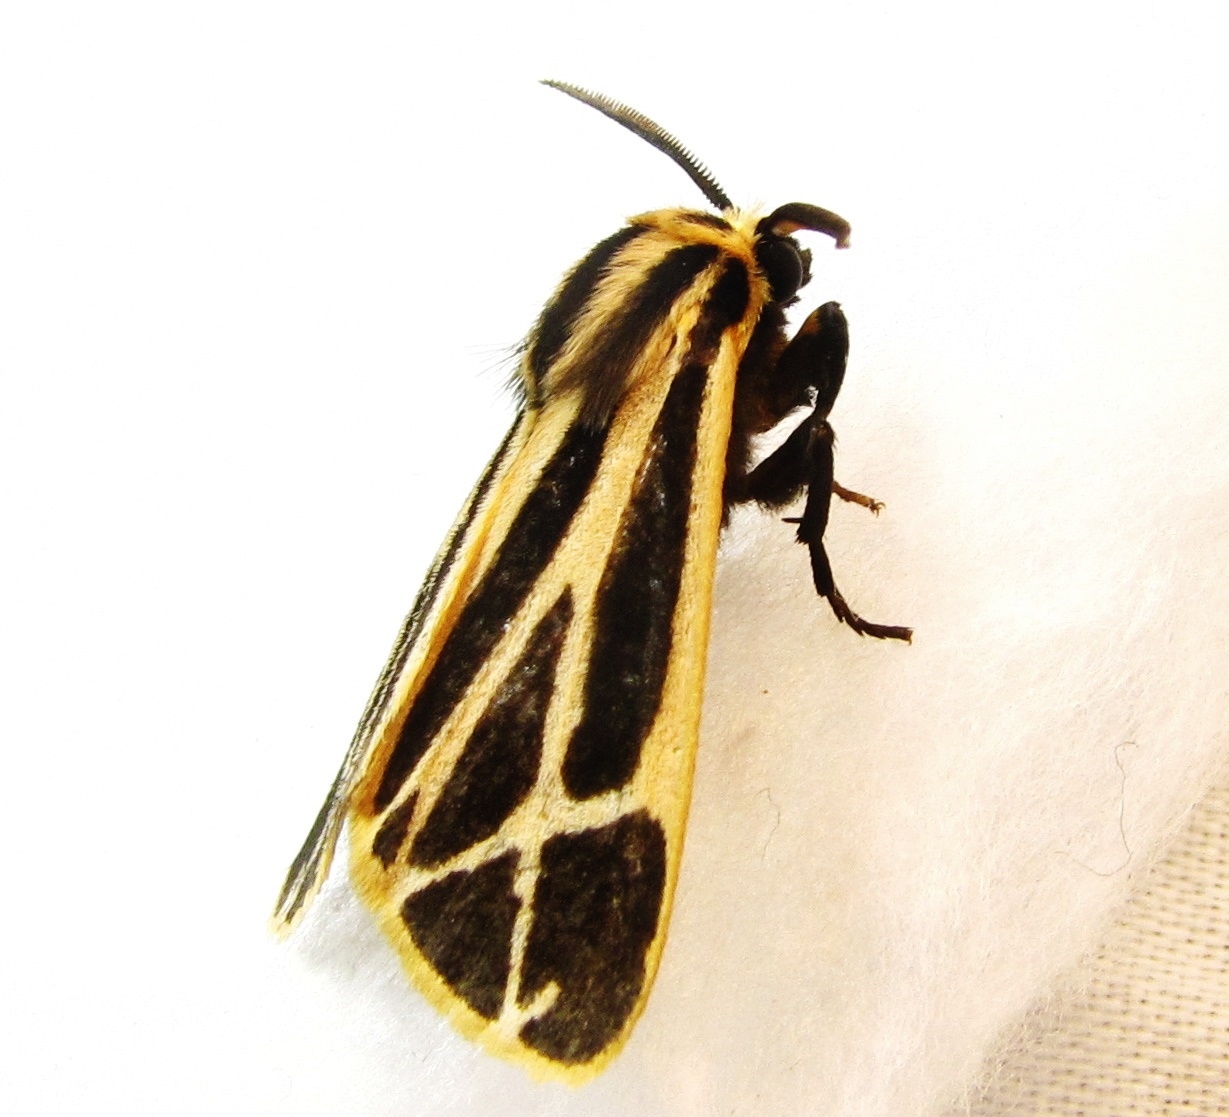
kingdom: Animalia
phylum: Arthropoda
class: Insecta
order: Lepidoptera
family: Erebidae
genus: Apantesis
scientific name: Apantesis phalerata
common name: Harnessed tiger moth
